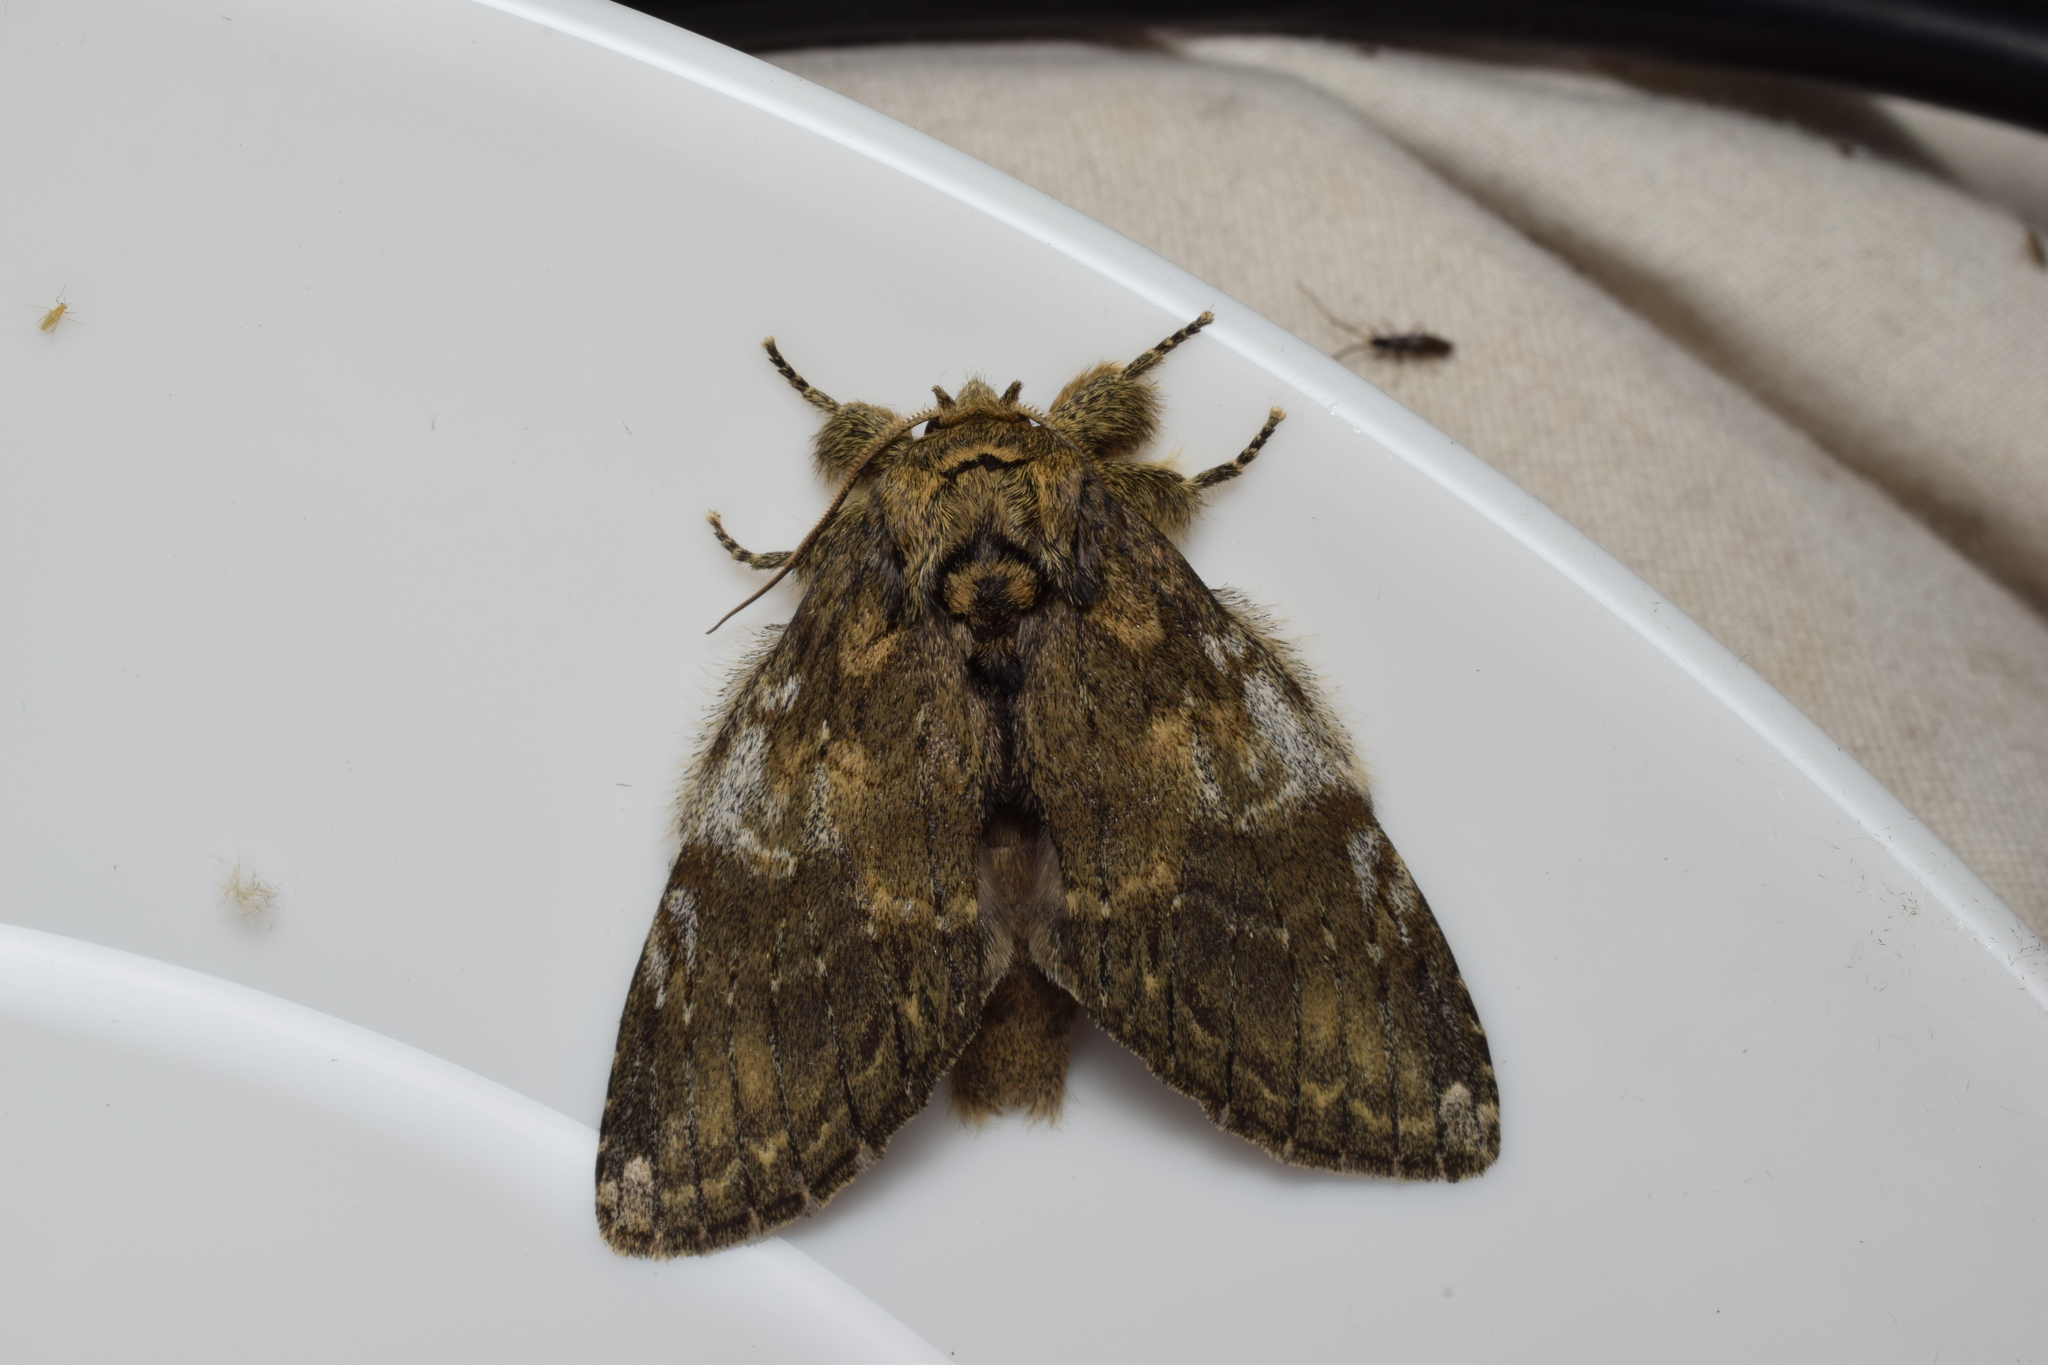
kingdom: Animalia
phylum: Arthropoda
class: Insecta
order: Lepidoptera
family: Notodontidae
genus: Peridea
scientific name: Peridea gigantea
